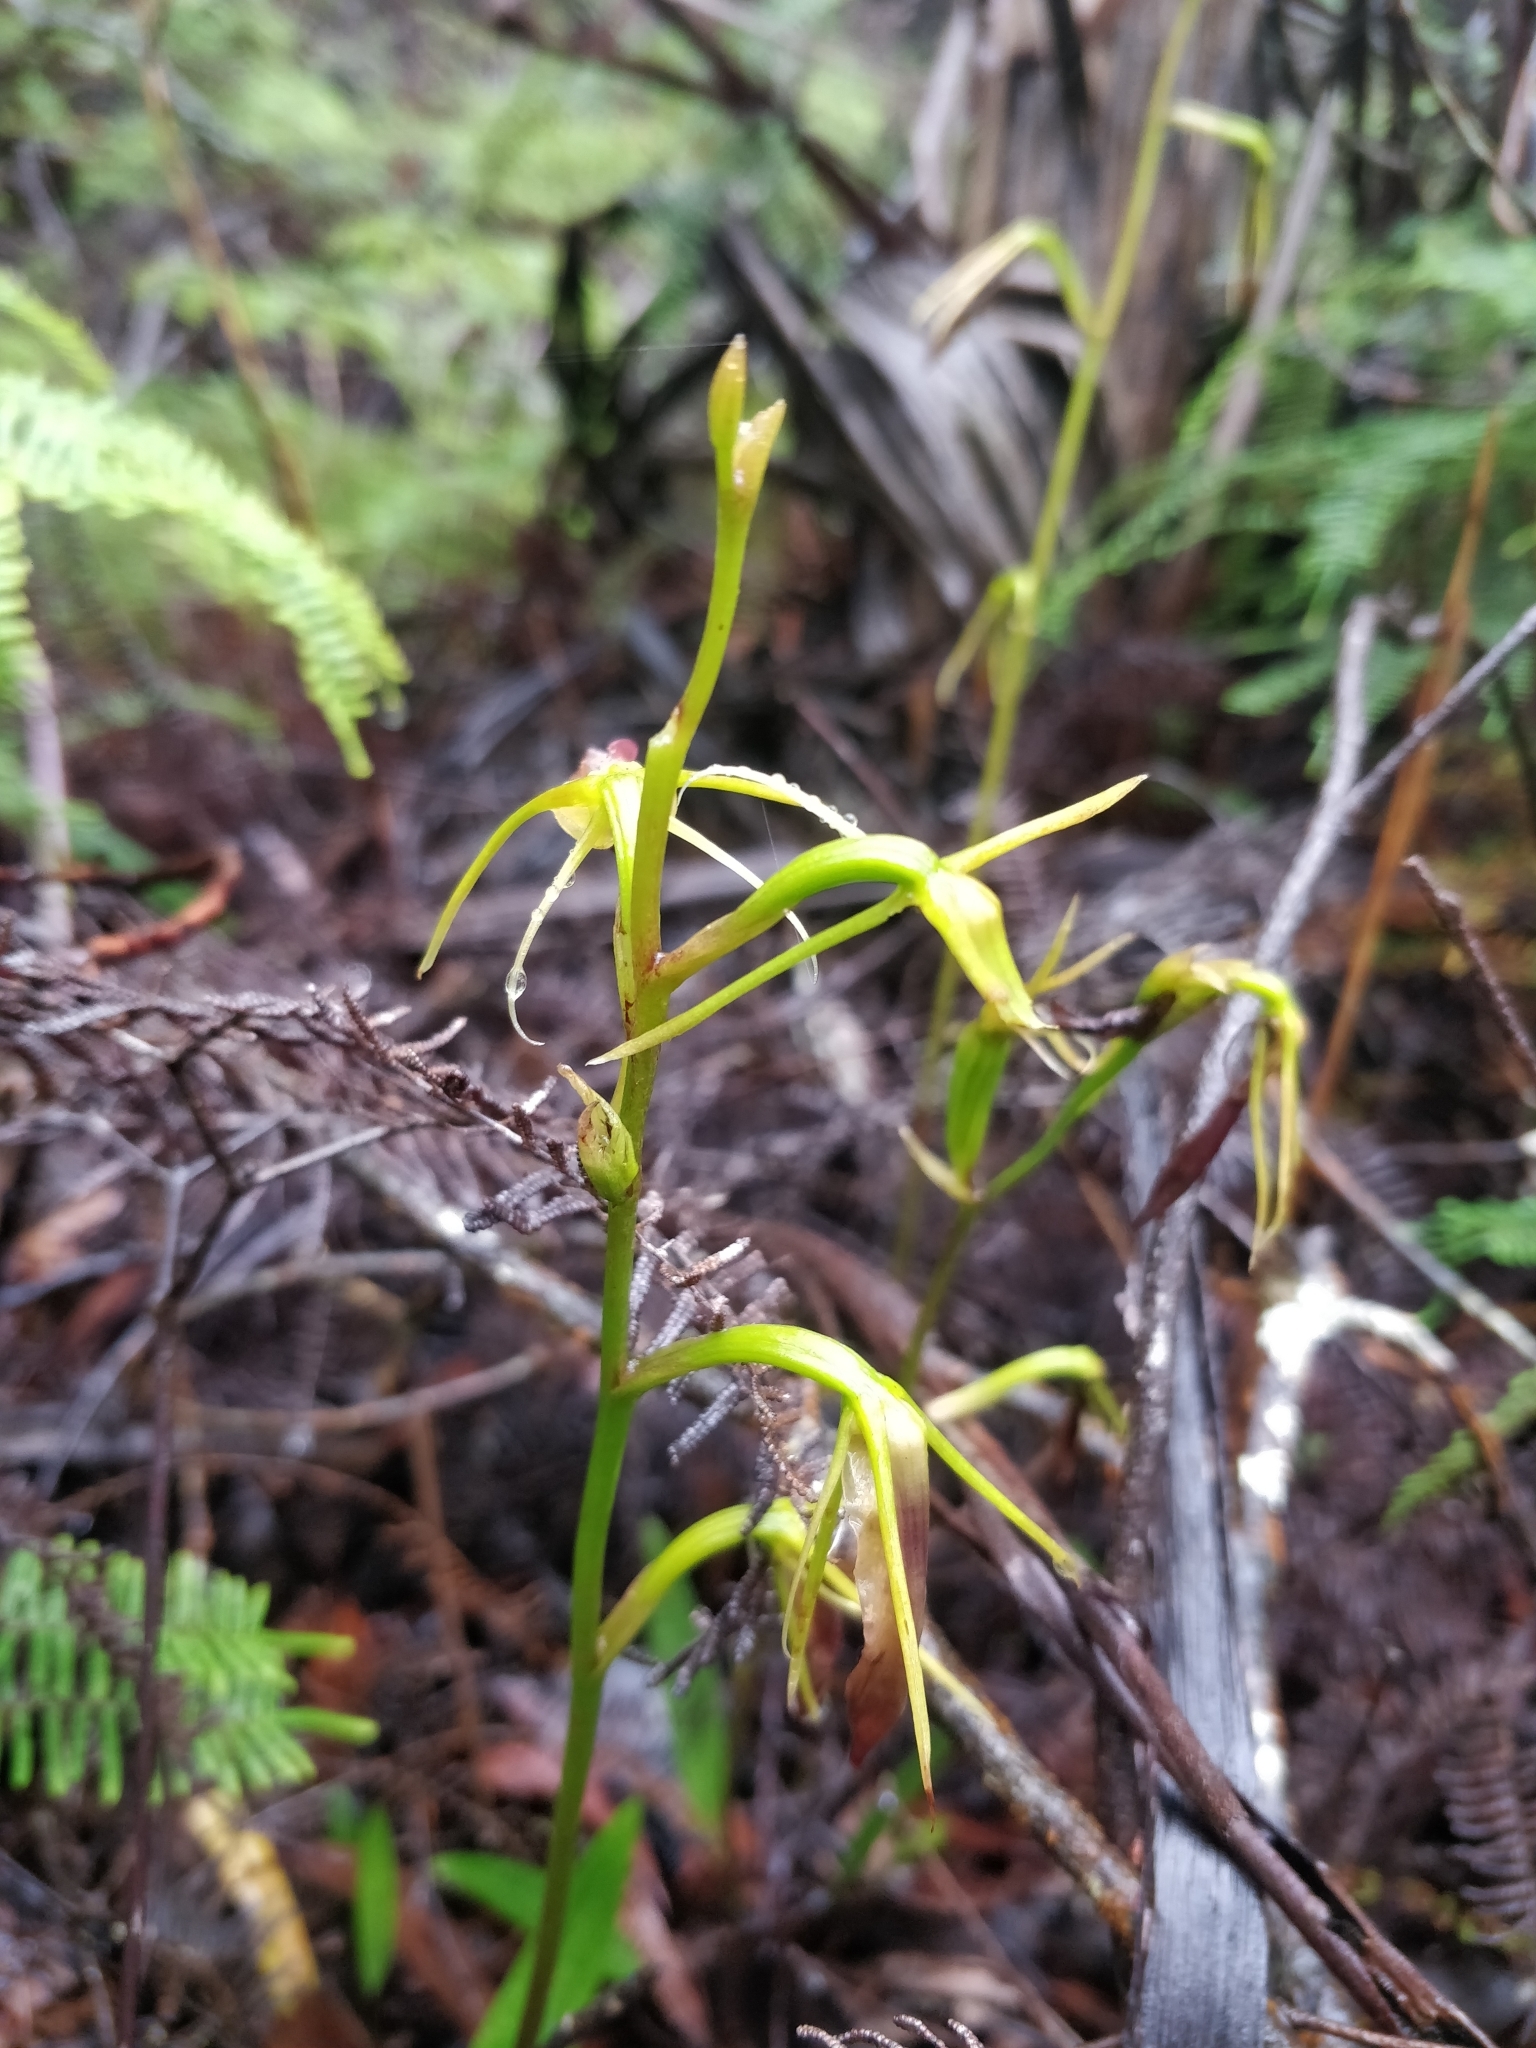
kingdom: Plantae
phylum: Tracheophyta
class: Liliopsida
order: Asparagales
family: Orchidaceae
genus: Cryptostylis
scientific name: Cryptostylis subulata
